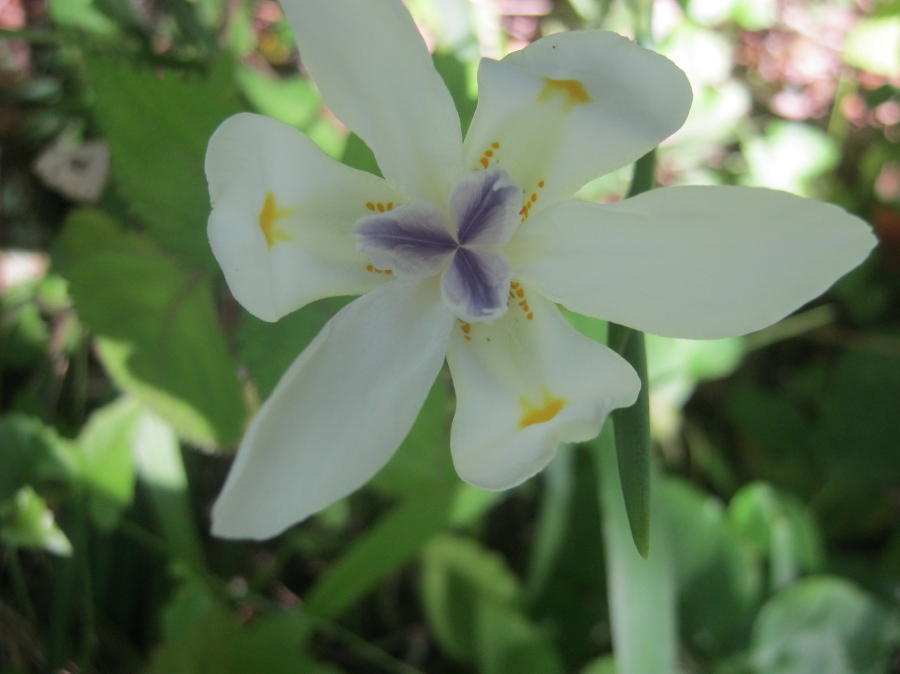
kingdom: Plantae
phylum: Tracheophyta
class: Liliopsida
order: Asparagales
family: Iridaceae
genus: Dietes
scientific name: Dietes iridioides
